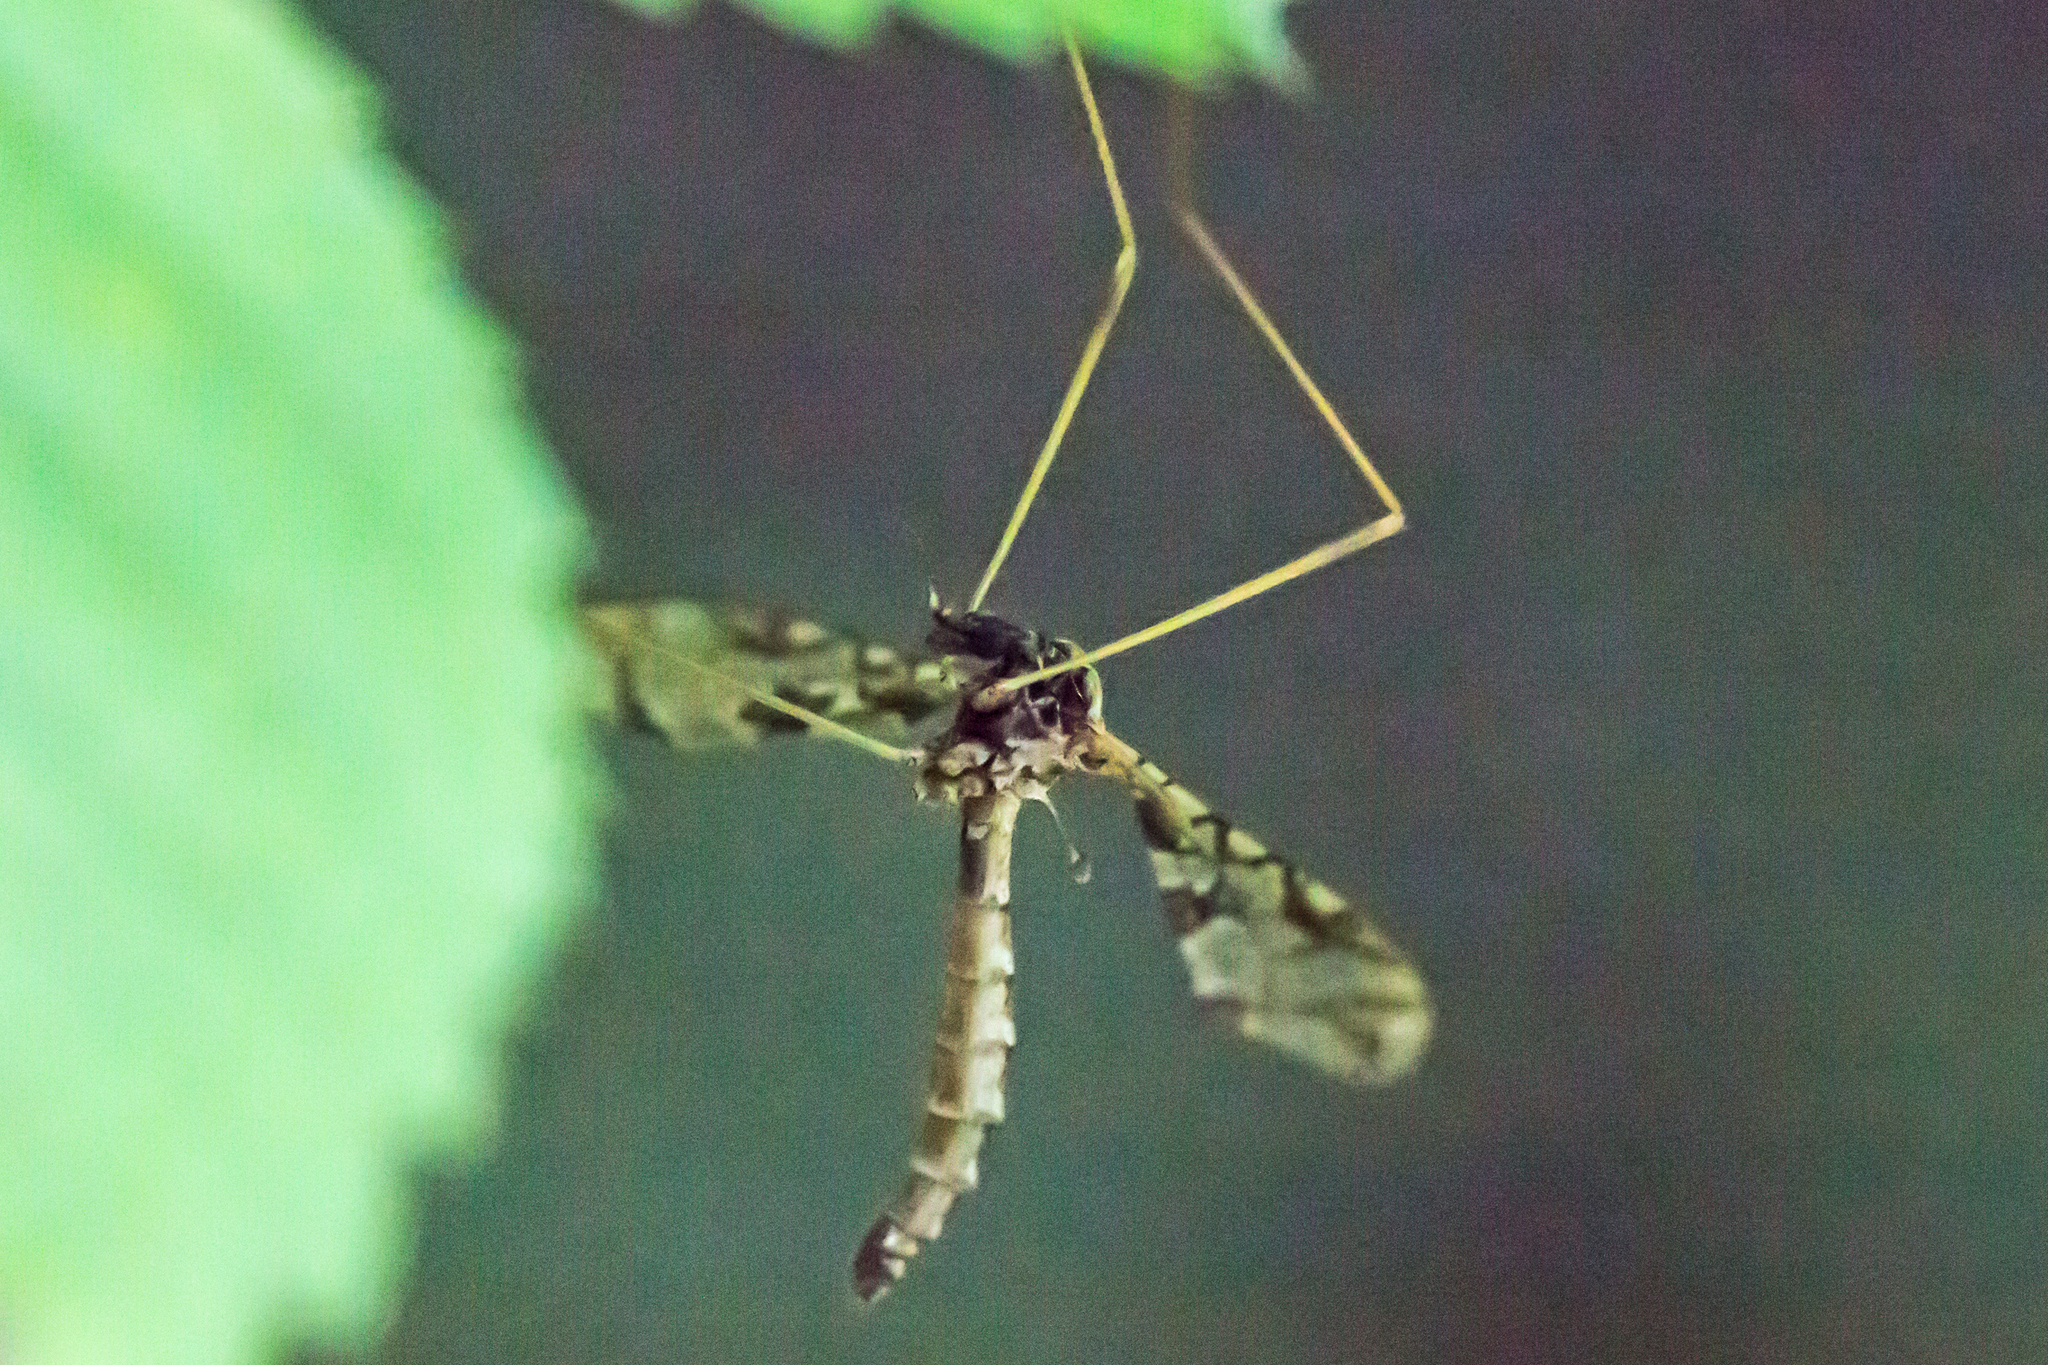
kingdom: Animalia
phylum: Arthropoda
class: Insecta
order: Diptera
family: Limoniidae
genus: Epiphragma
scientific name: Epiphragma solatrix
